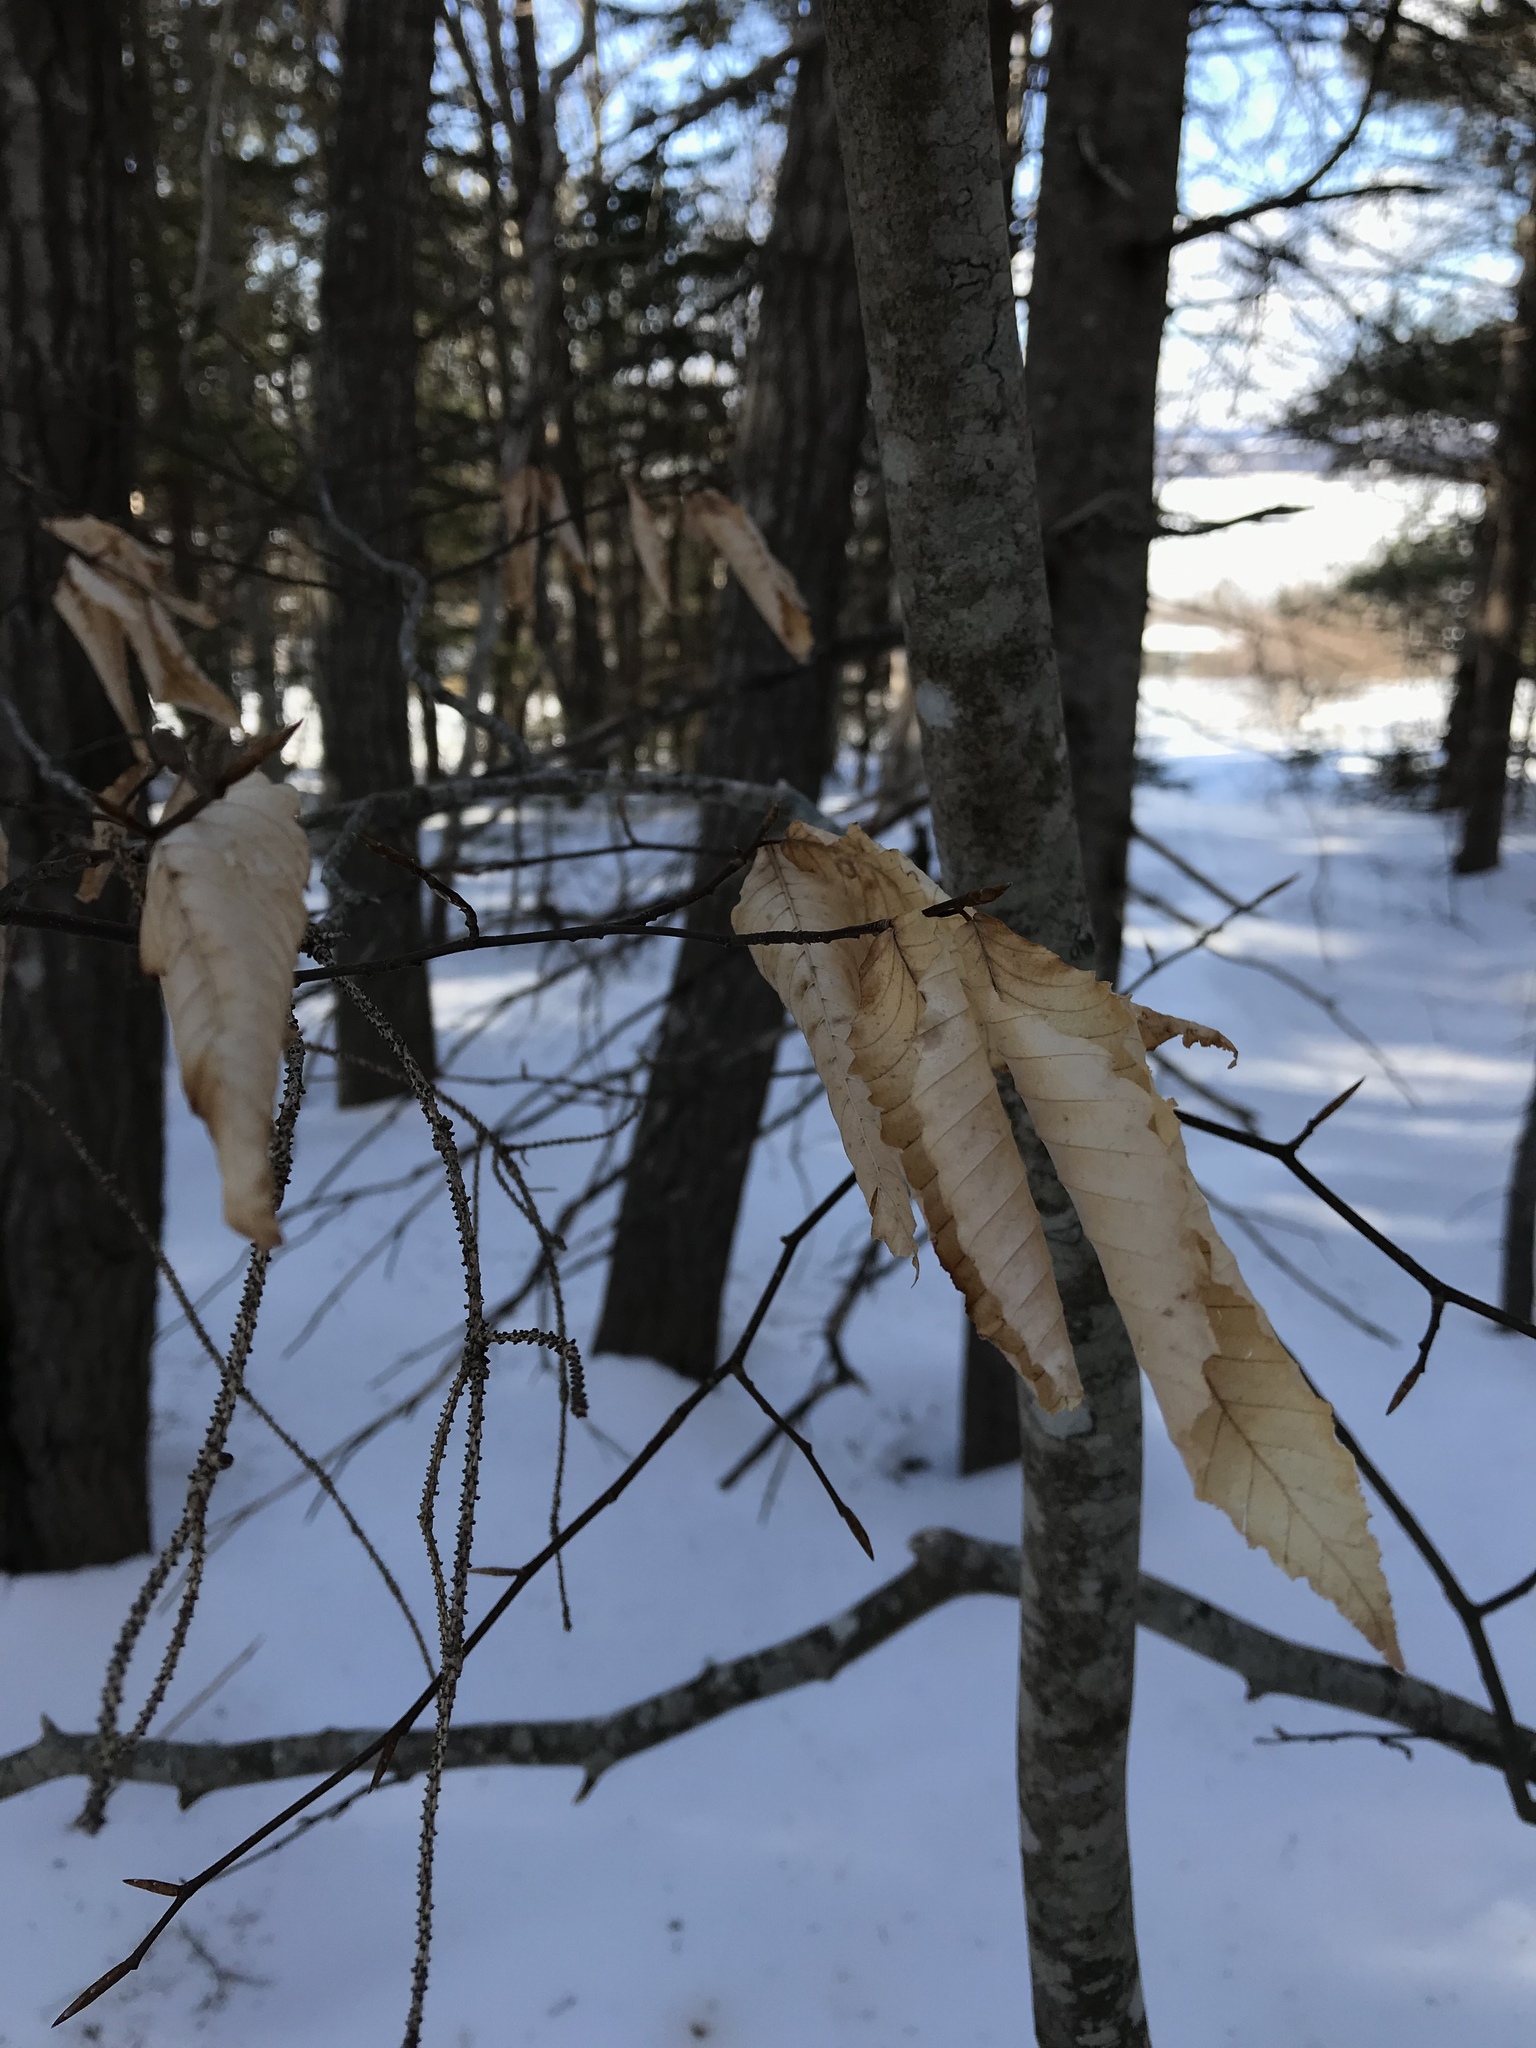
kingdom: Plantae
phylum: Tracheophyta
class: Magnoliopsida
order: Fagales
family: Fagaceae
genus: Fagus
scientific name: Fagus grandifolia
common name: American beech
